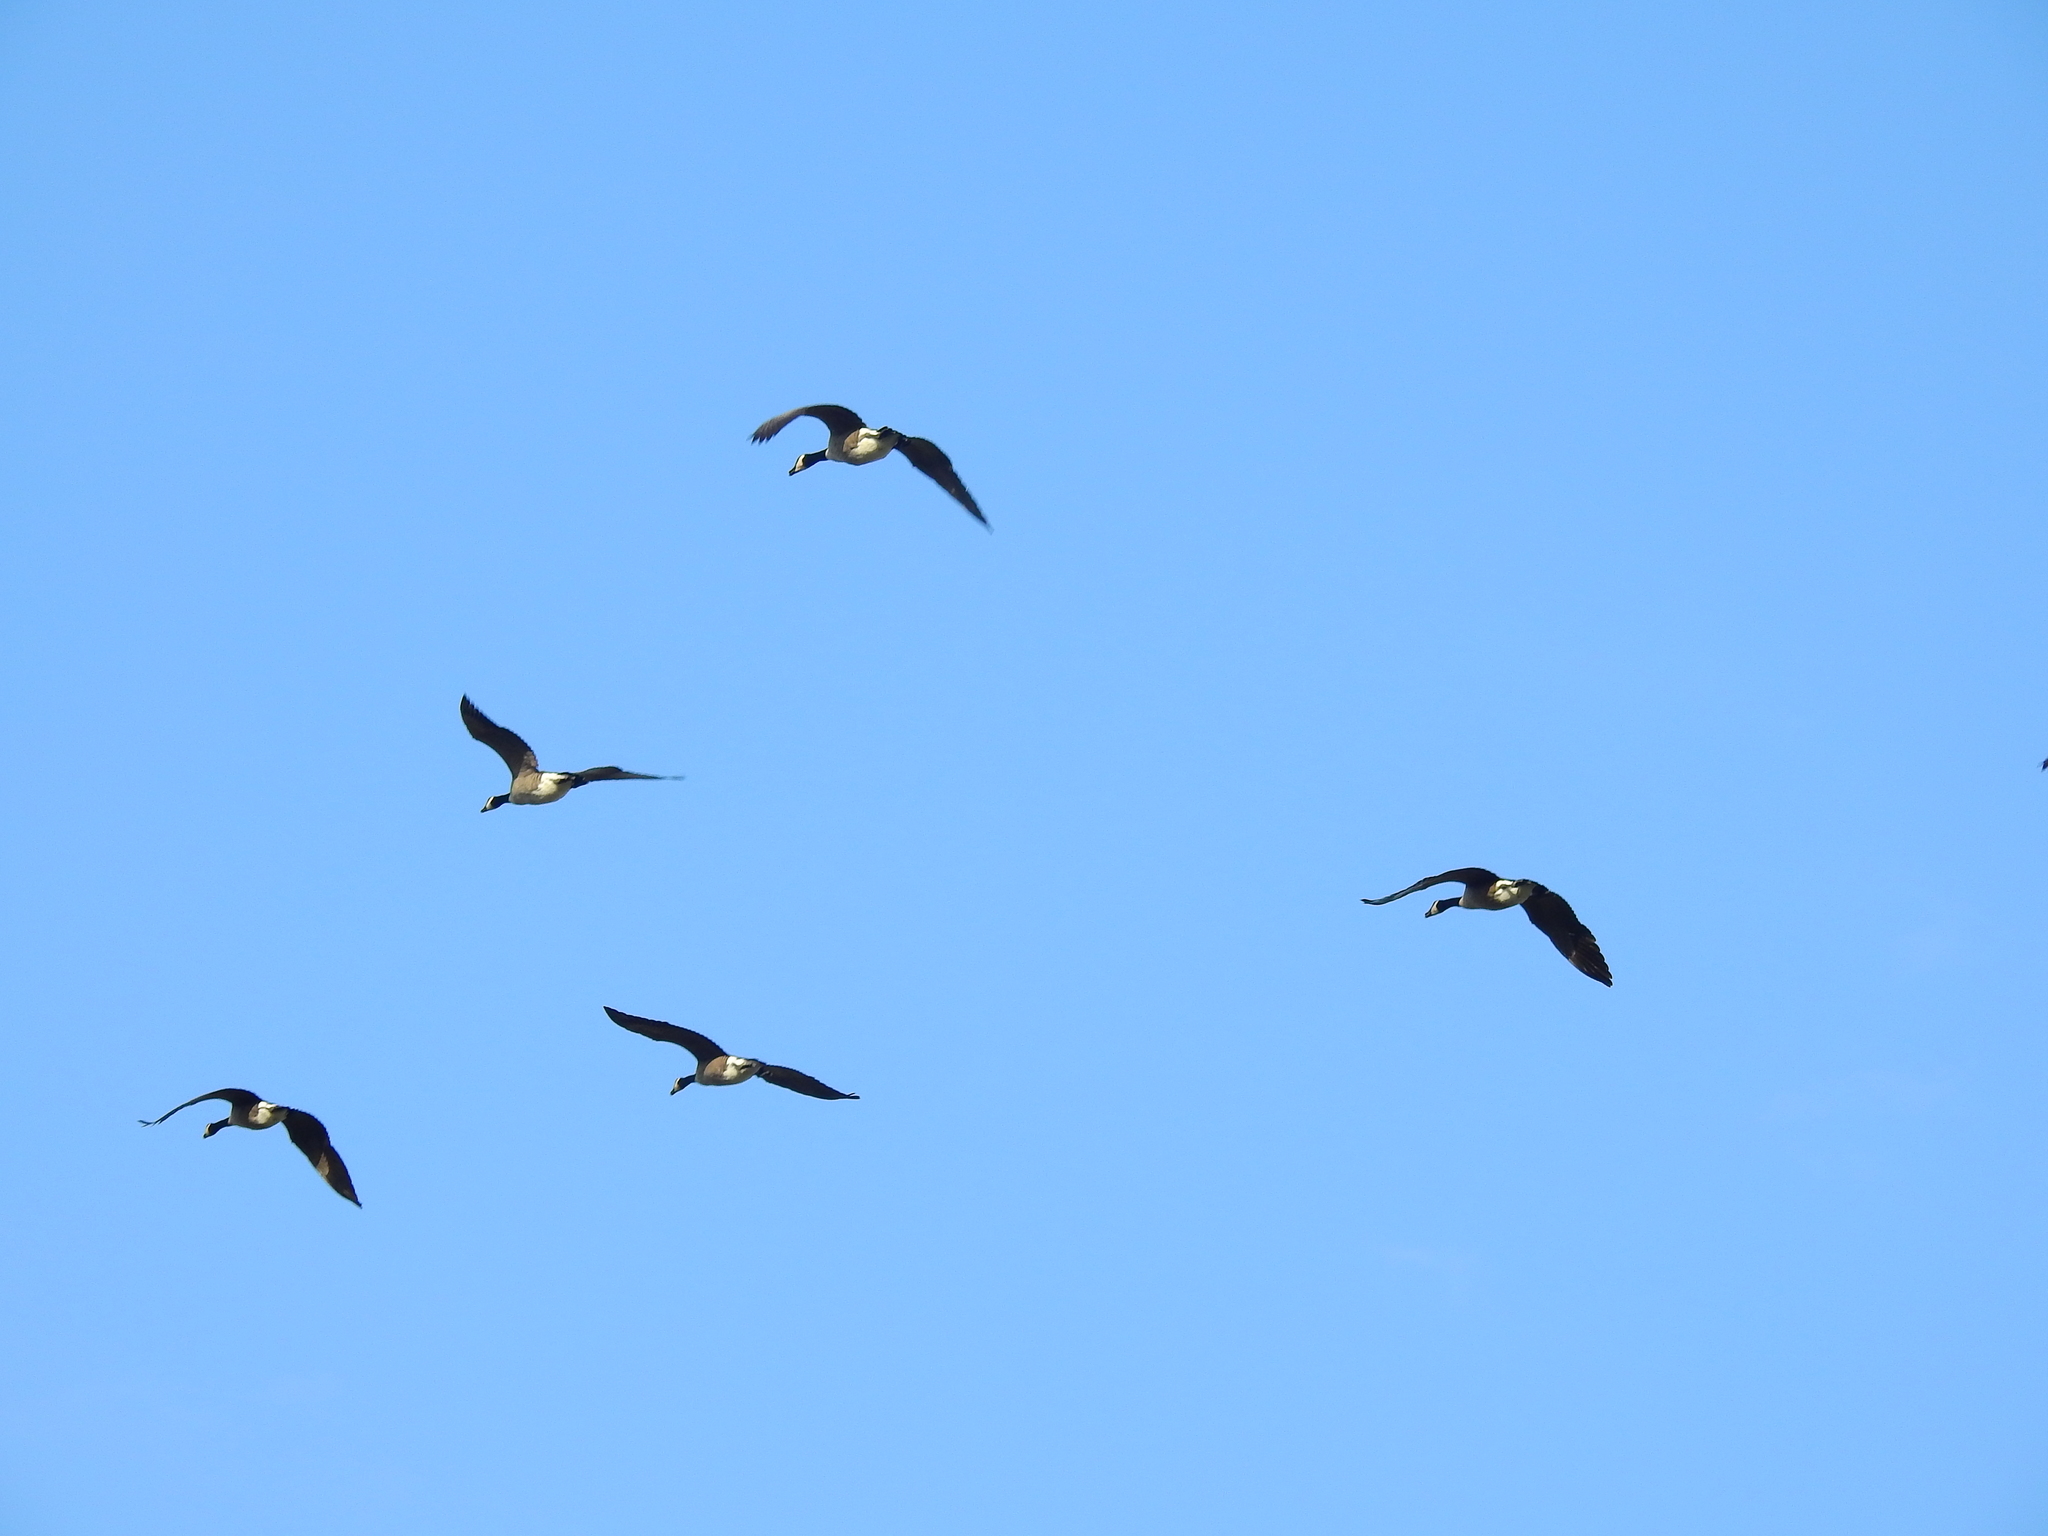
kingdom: Animalia
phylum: Chordata
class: Aves
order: Anseriformes
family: Anatidae
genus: Branta
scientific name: Branta canadensis
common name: Canada goose
